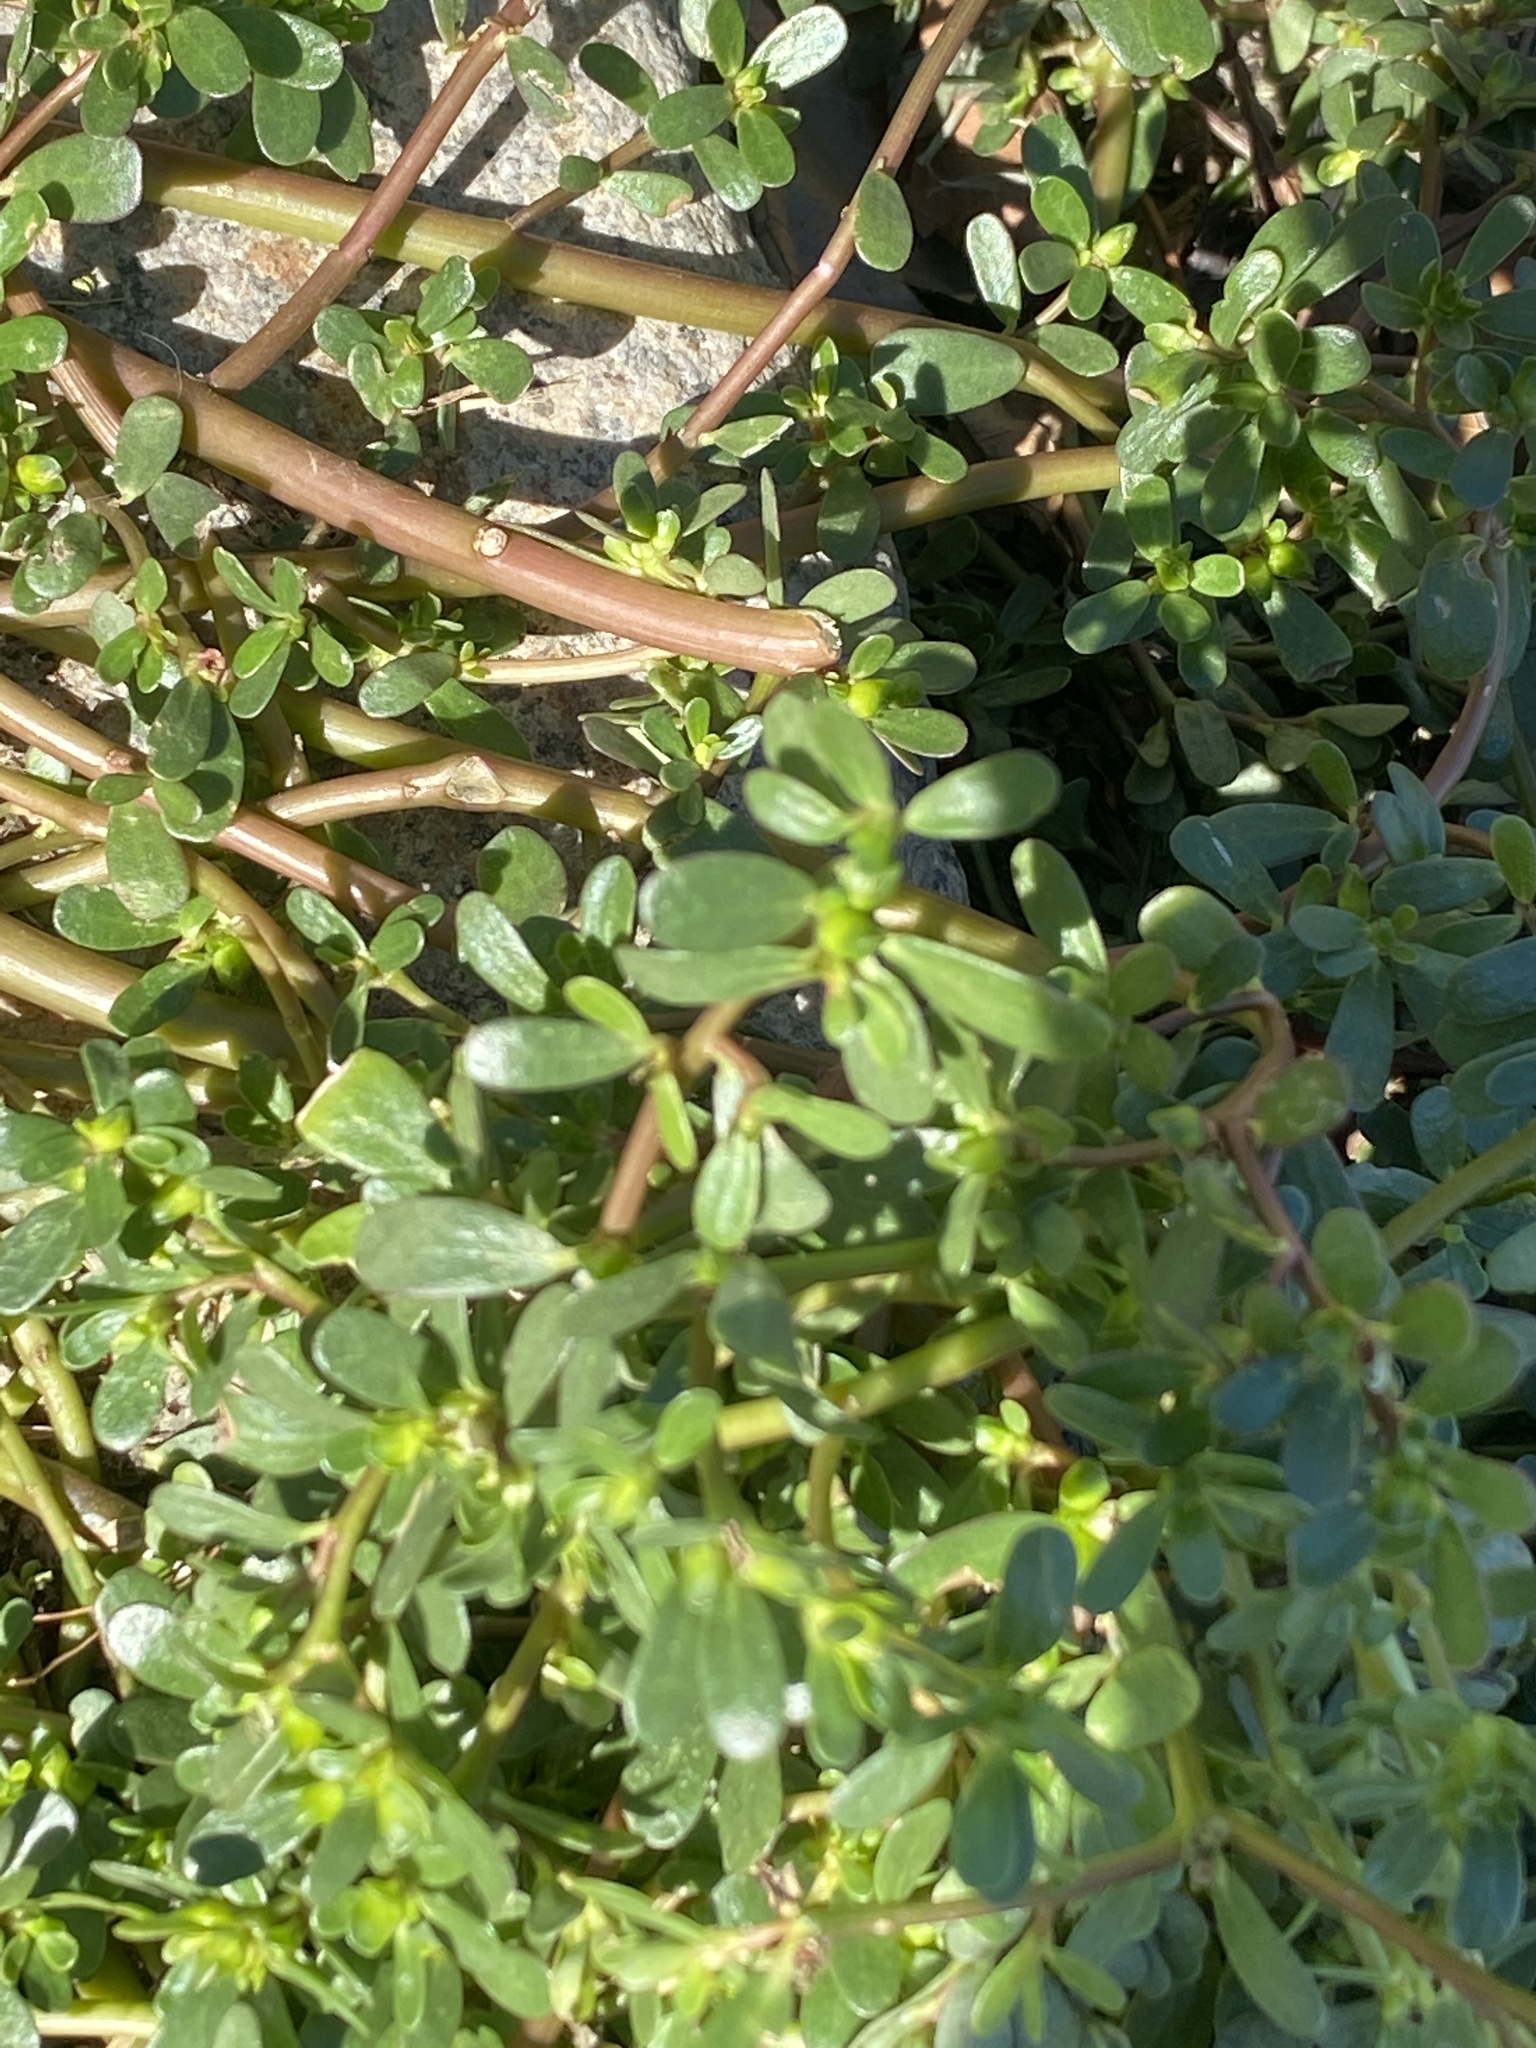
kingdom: Plantae
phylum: Tracheophyta
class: Magnoliopsida
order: Caryophyllales
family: Portulacaceae
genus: Portulaca
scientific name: Portulaca oleracea
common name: Common purslane
